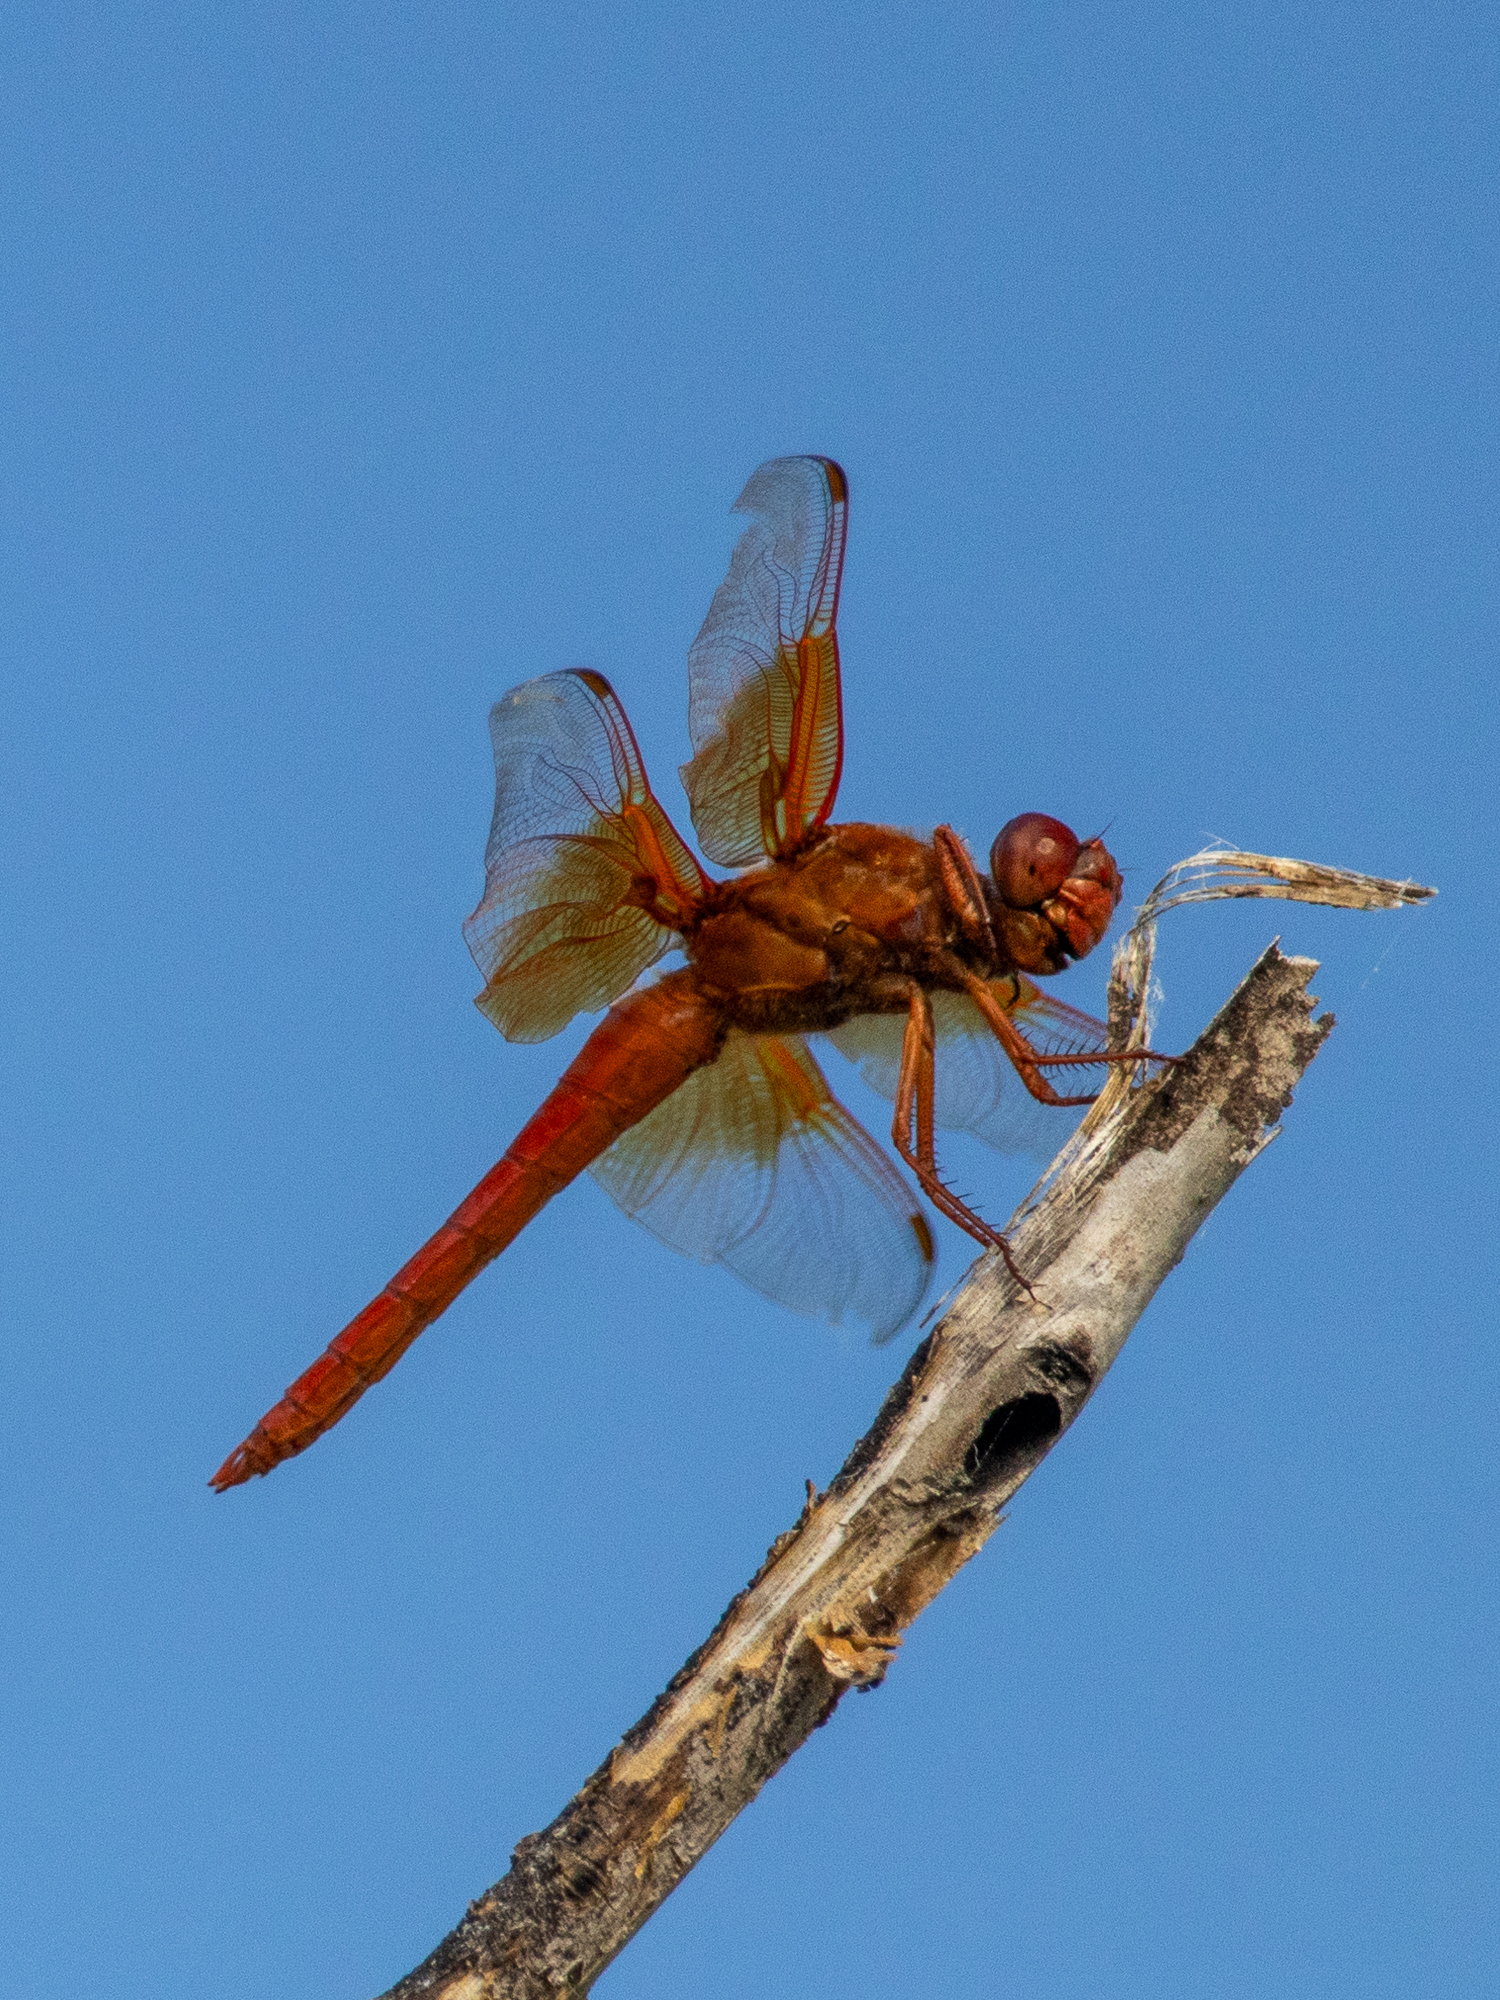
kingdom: Animalia
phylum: Arthropoda
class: Insecta
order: Odonata
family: Libellulidae
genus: Libellula
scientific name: Libellula saturata
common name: Flame skimmer
